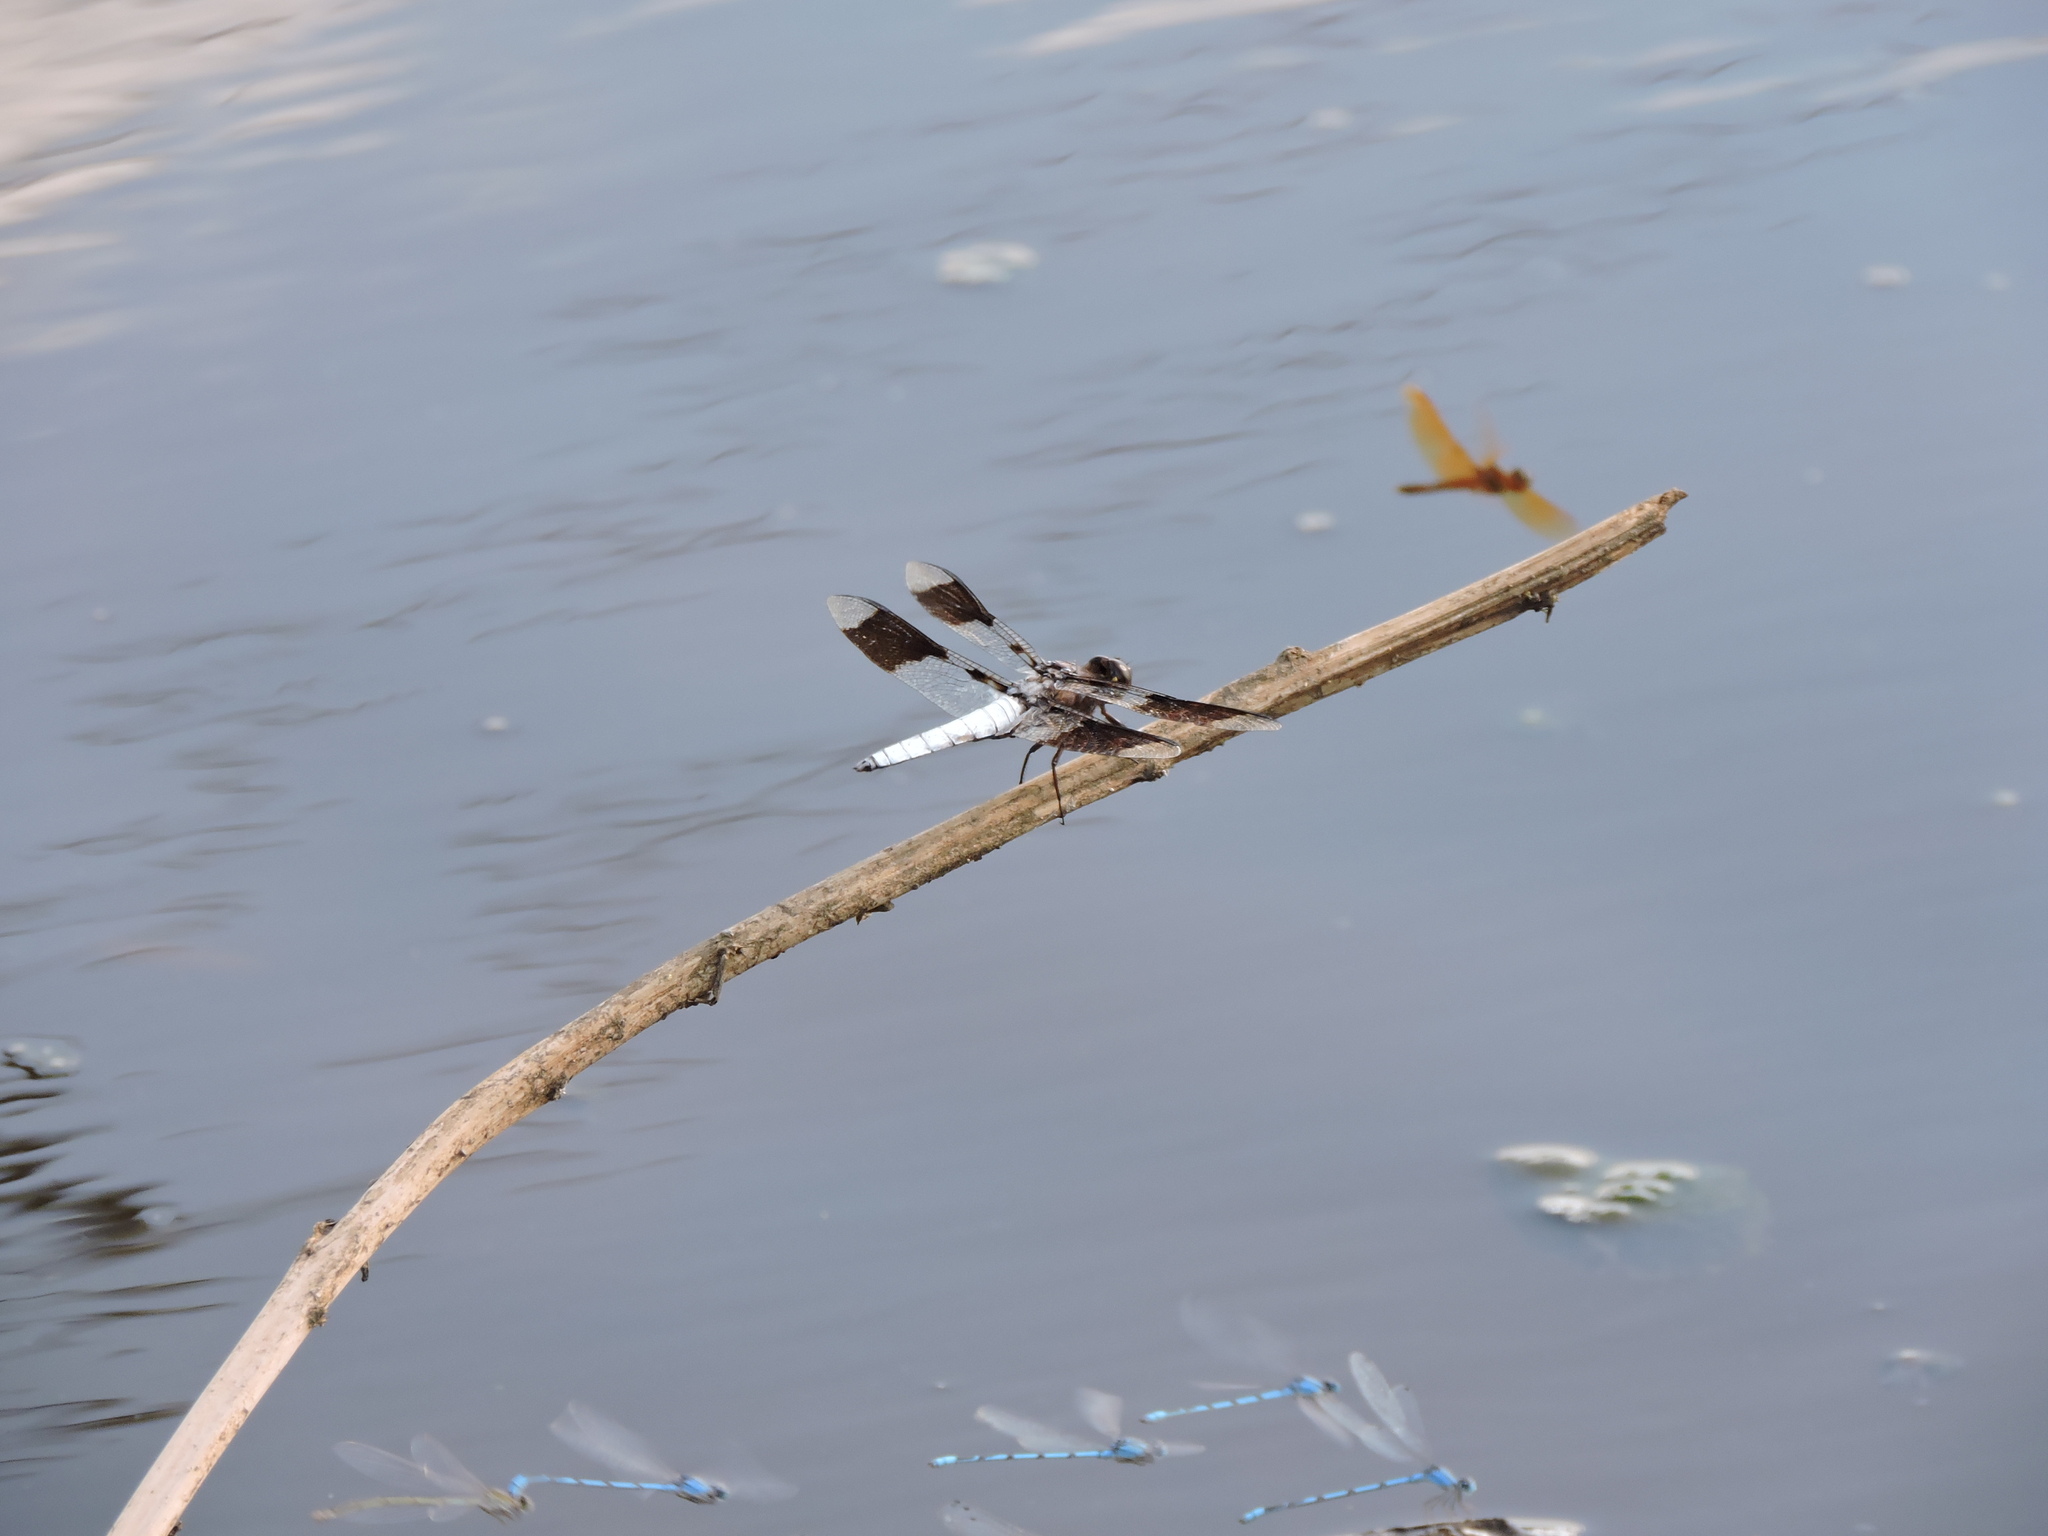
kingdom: Animalia
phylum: Arthropoda
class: Insecta
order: Odonata
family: Libellulidae
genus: Plathemis
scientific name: Plathemis lydia
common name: Common whitetail
